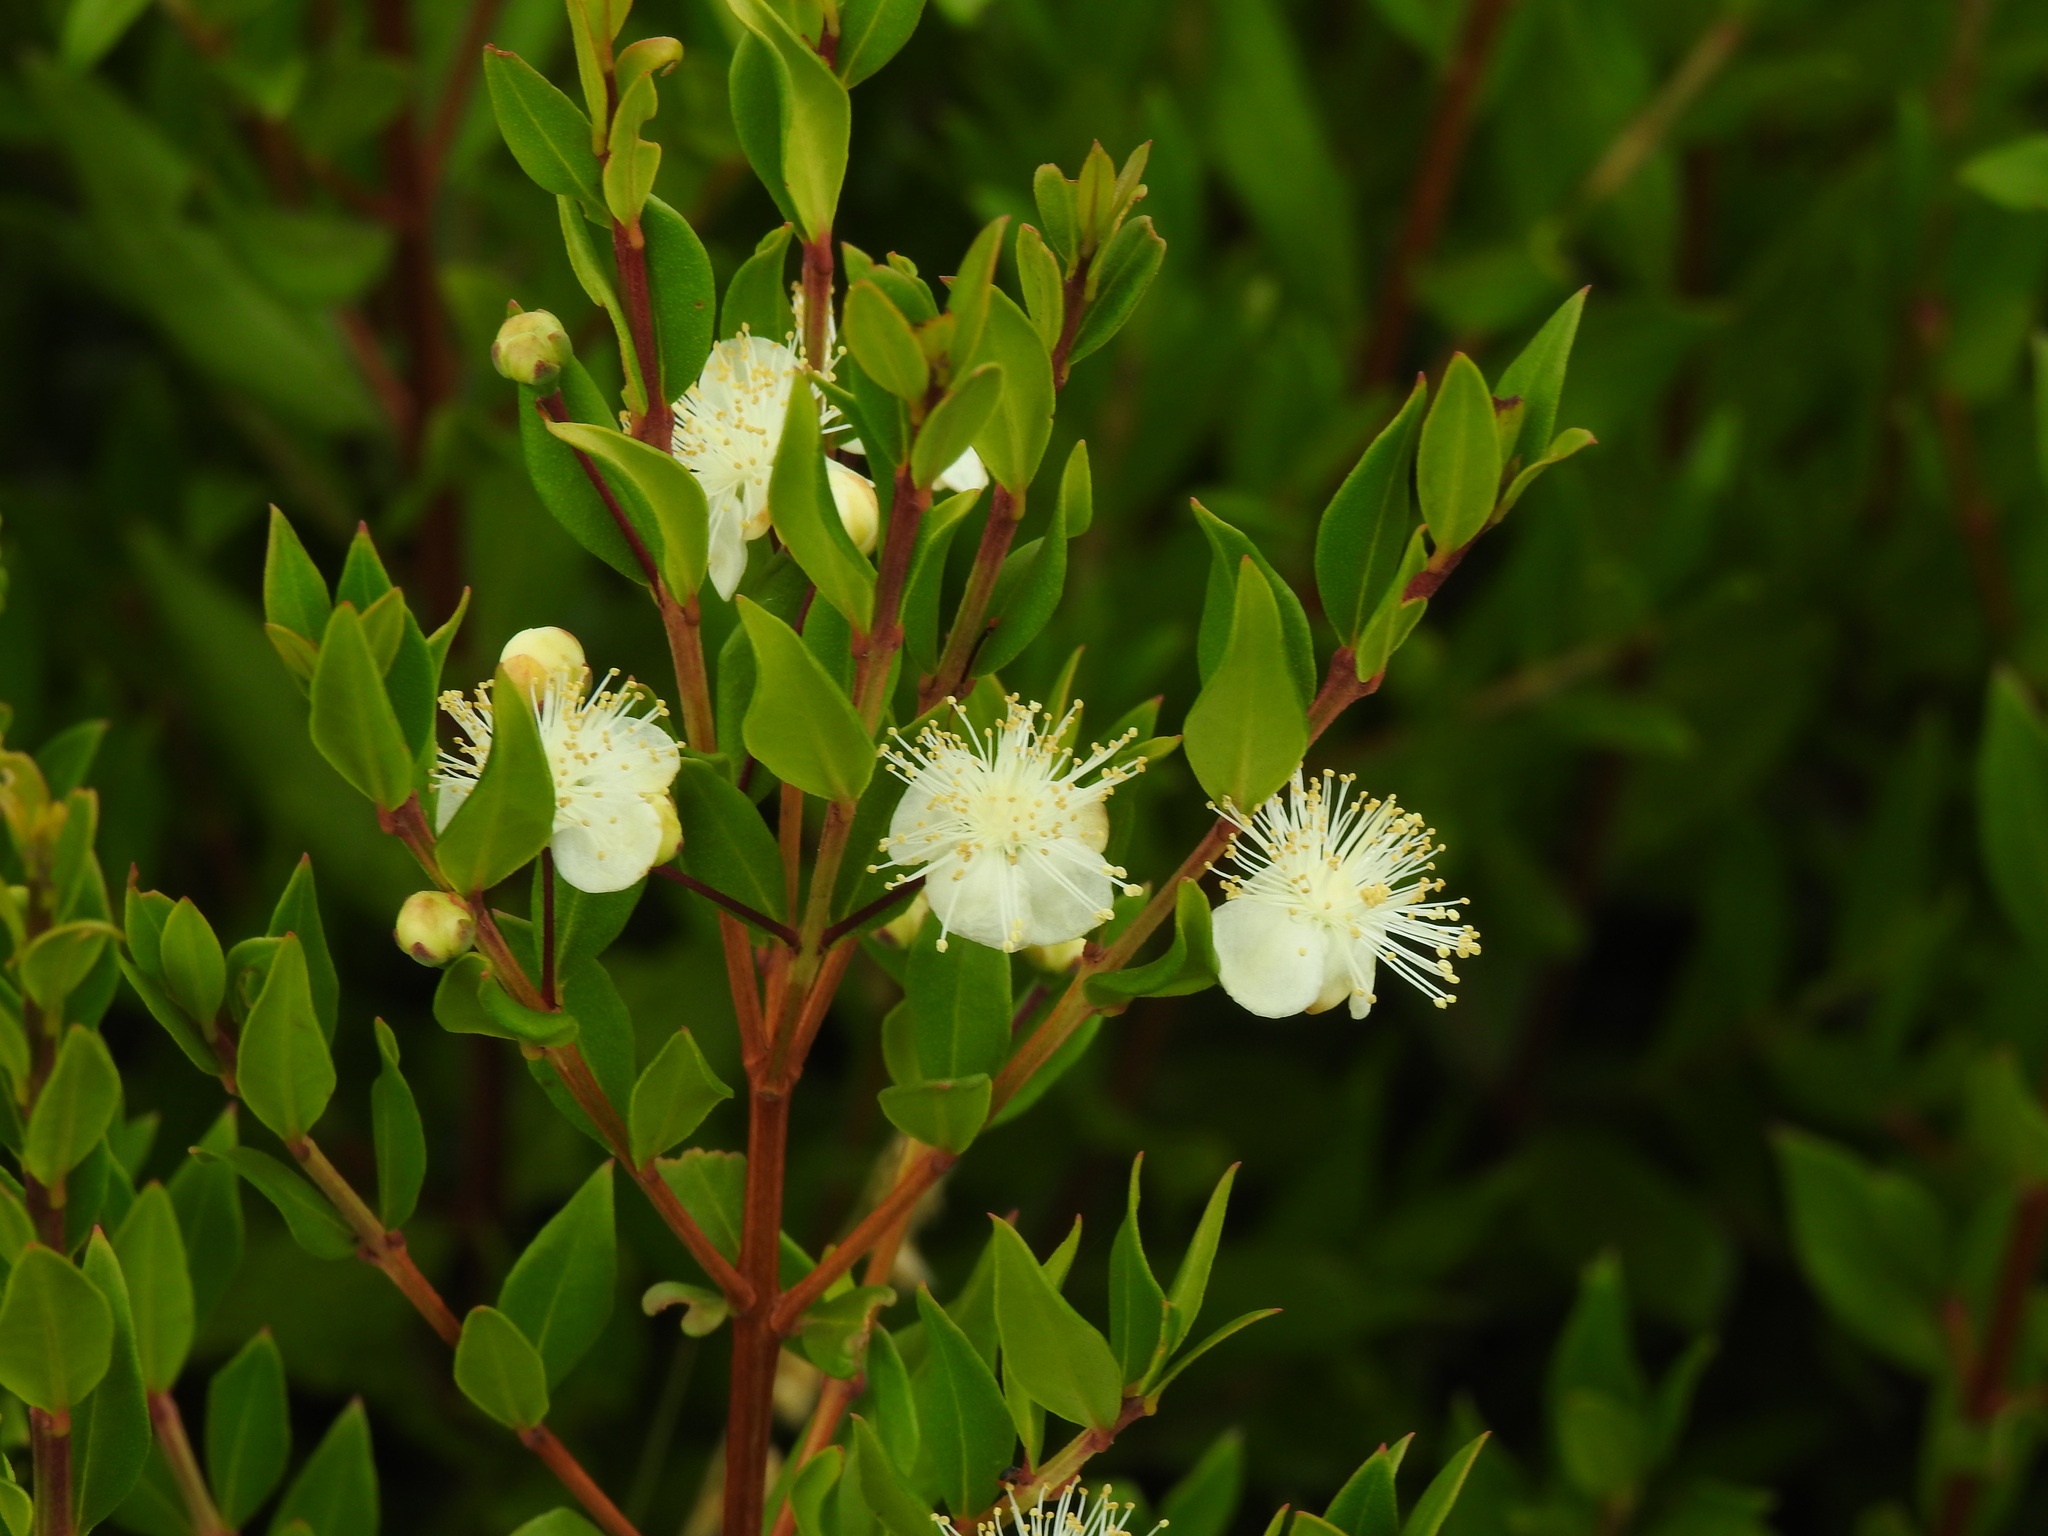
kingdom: Plantae
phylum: Tracheophyta
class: Magnoliopsida
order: Myrtales
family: Myrtaceae
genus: Myrtus
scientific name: Myrtus communis
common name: Myrtle
